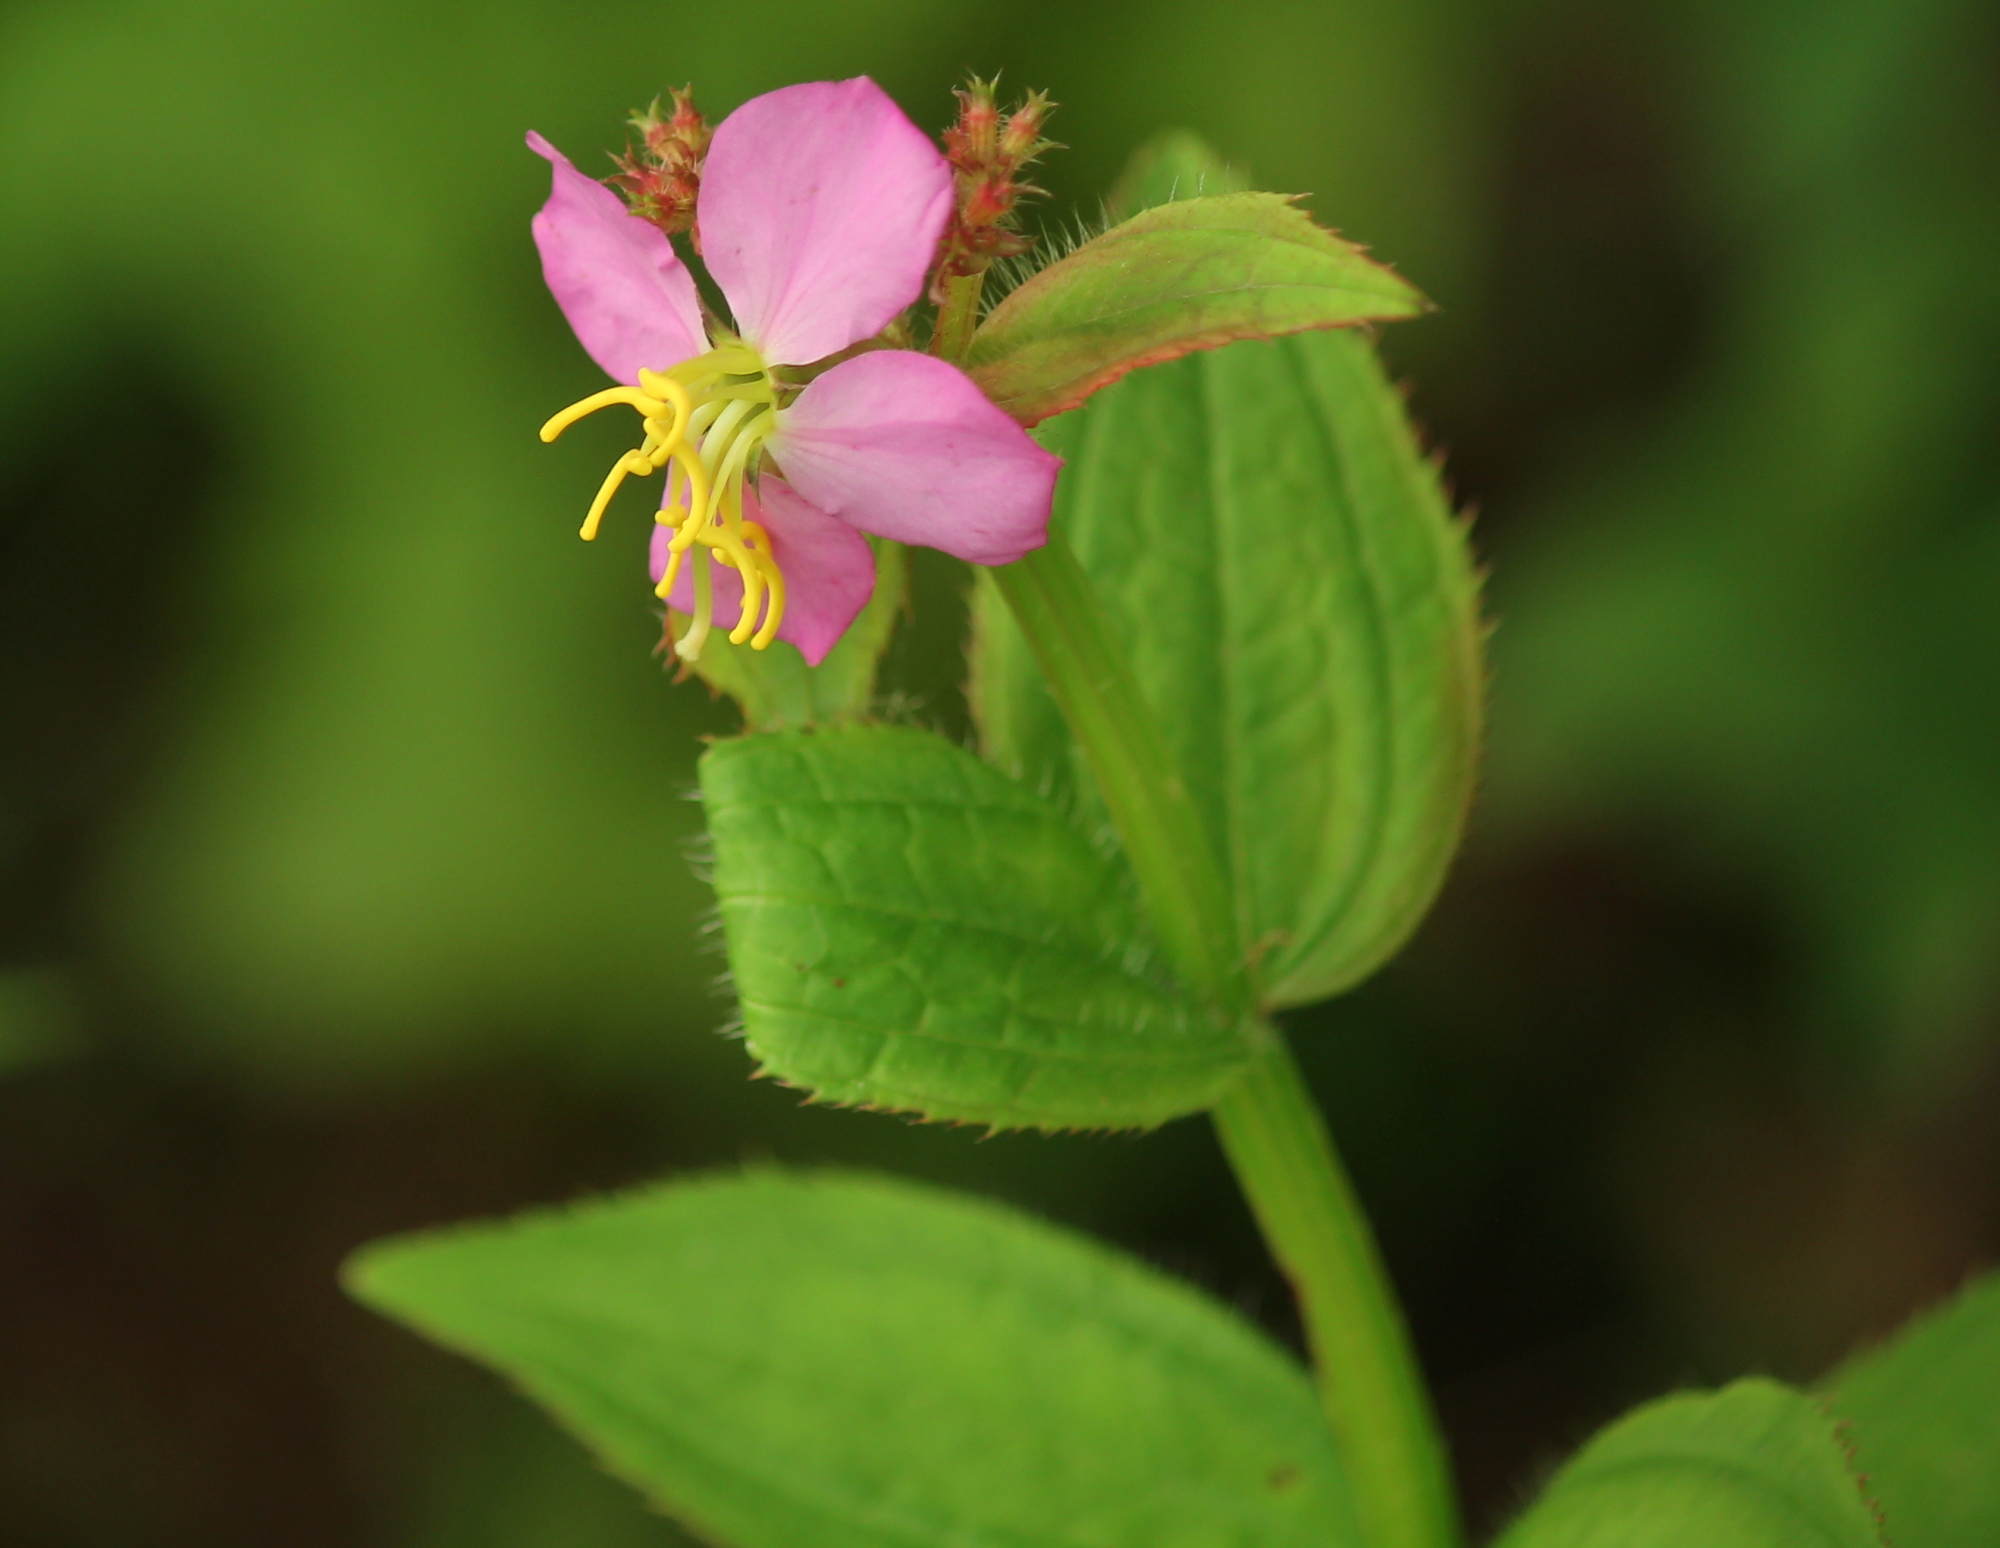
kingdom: Plantae
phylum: Tracheophyta
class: Magnoliopsida
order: Myrtales
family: Melastomataceae
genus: Rhexia
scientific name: Rhexia virginica
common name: Common meadow beauty
